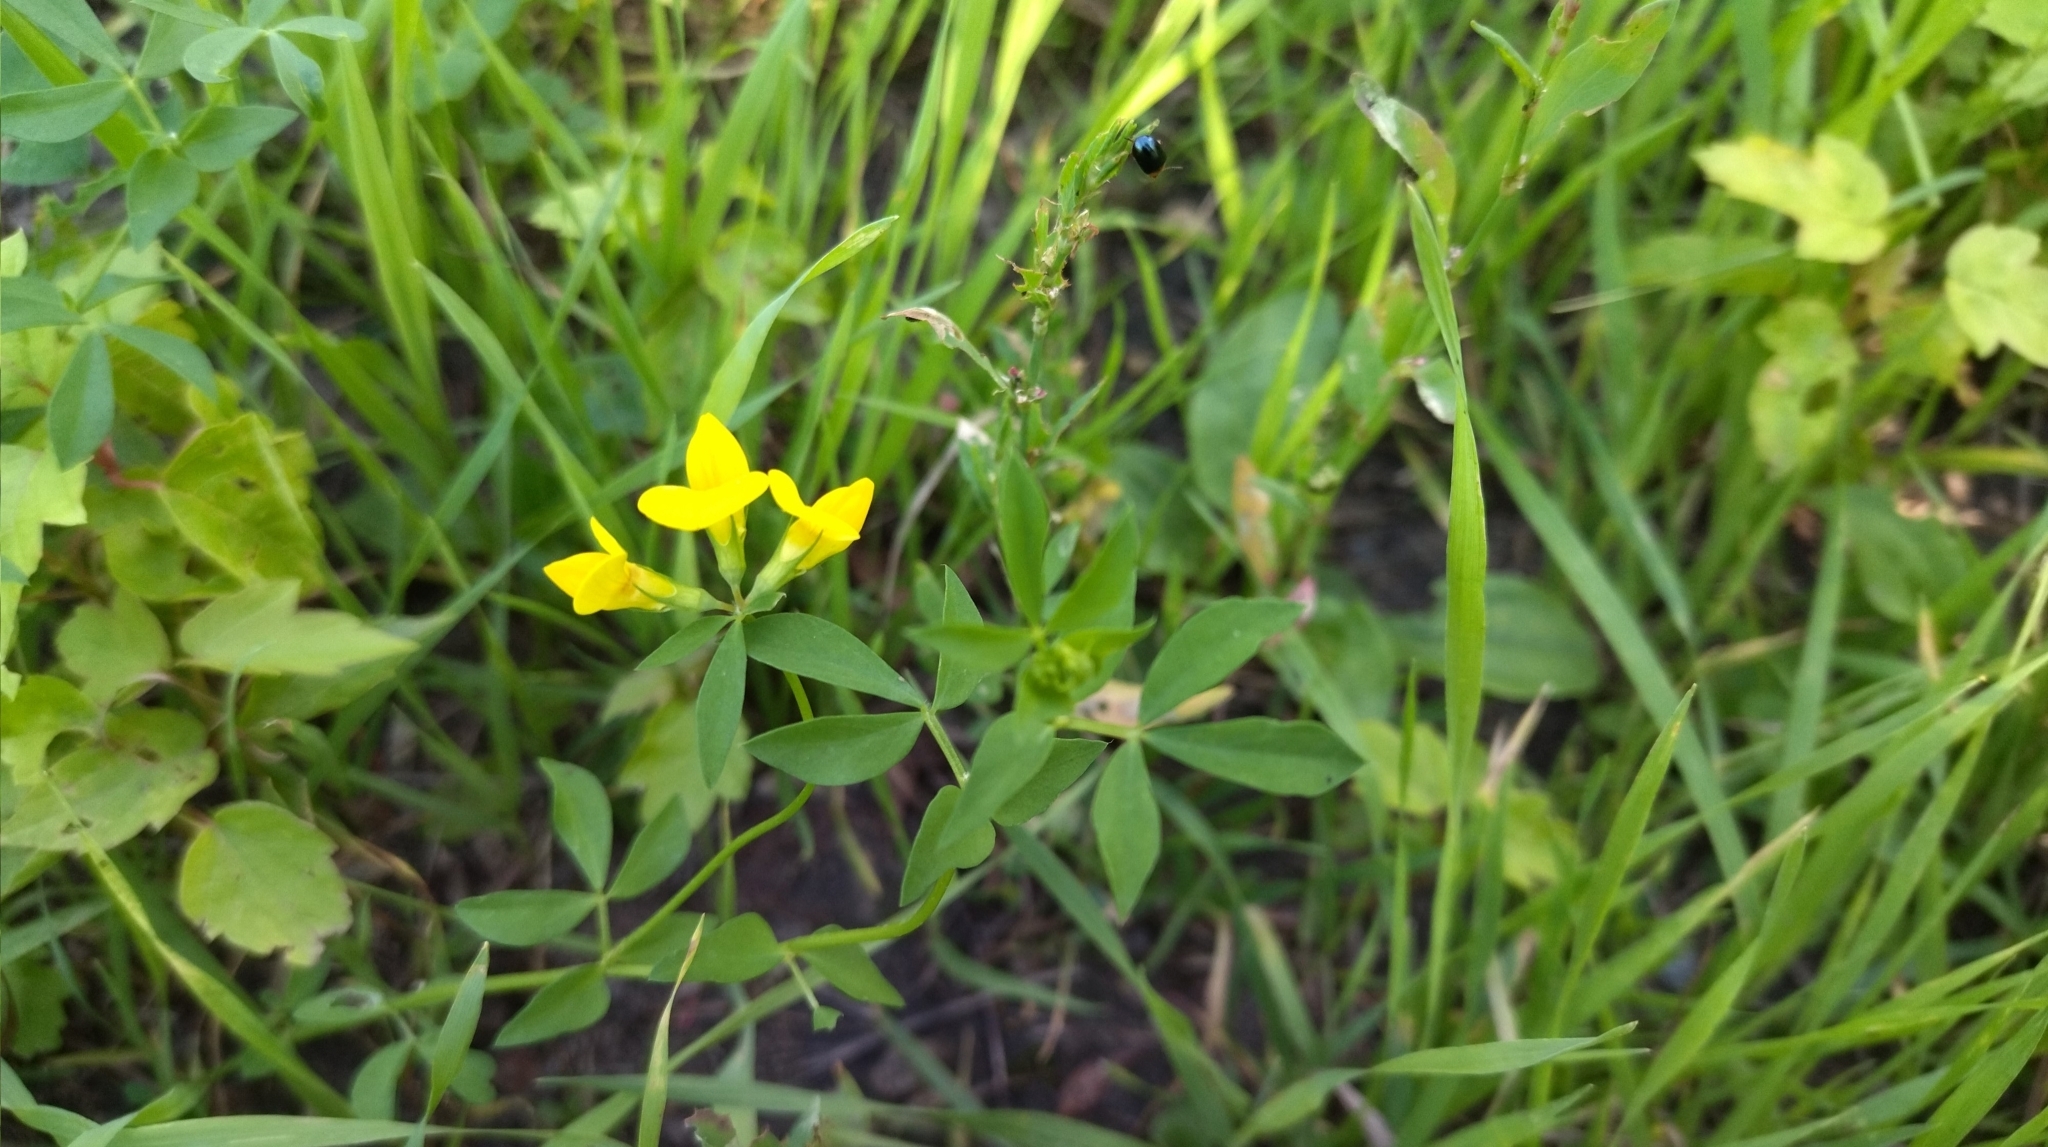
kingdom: Plantae
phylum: Tracheophyta
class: Magnoliopsida
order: Fabales
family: Fabaceae
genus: Lotus
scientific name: Lotus corniculatus
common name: Common bird's-foot-trefoil
